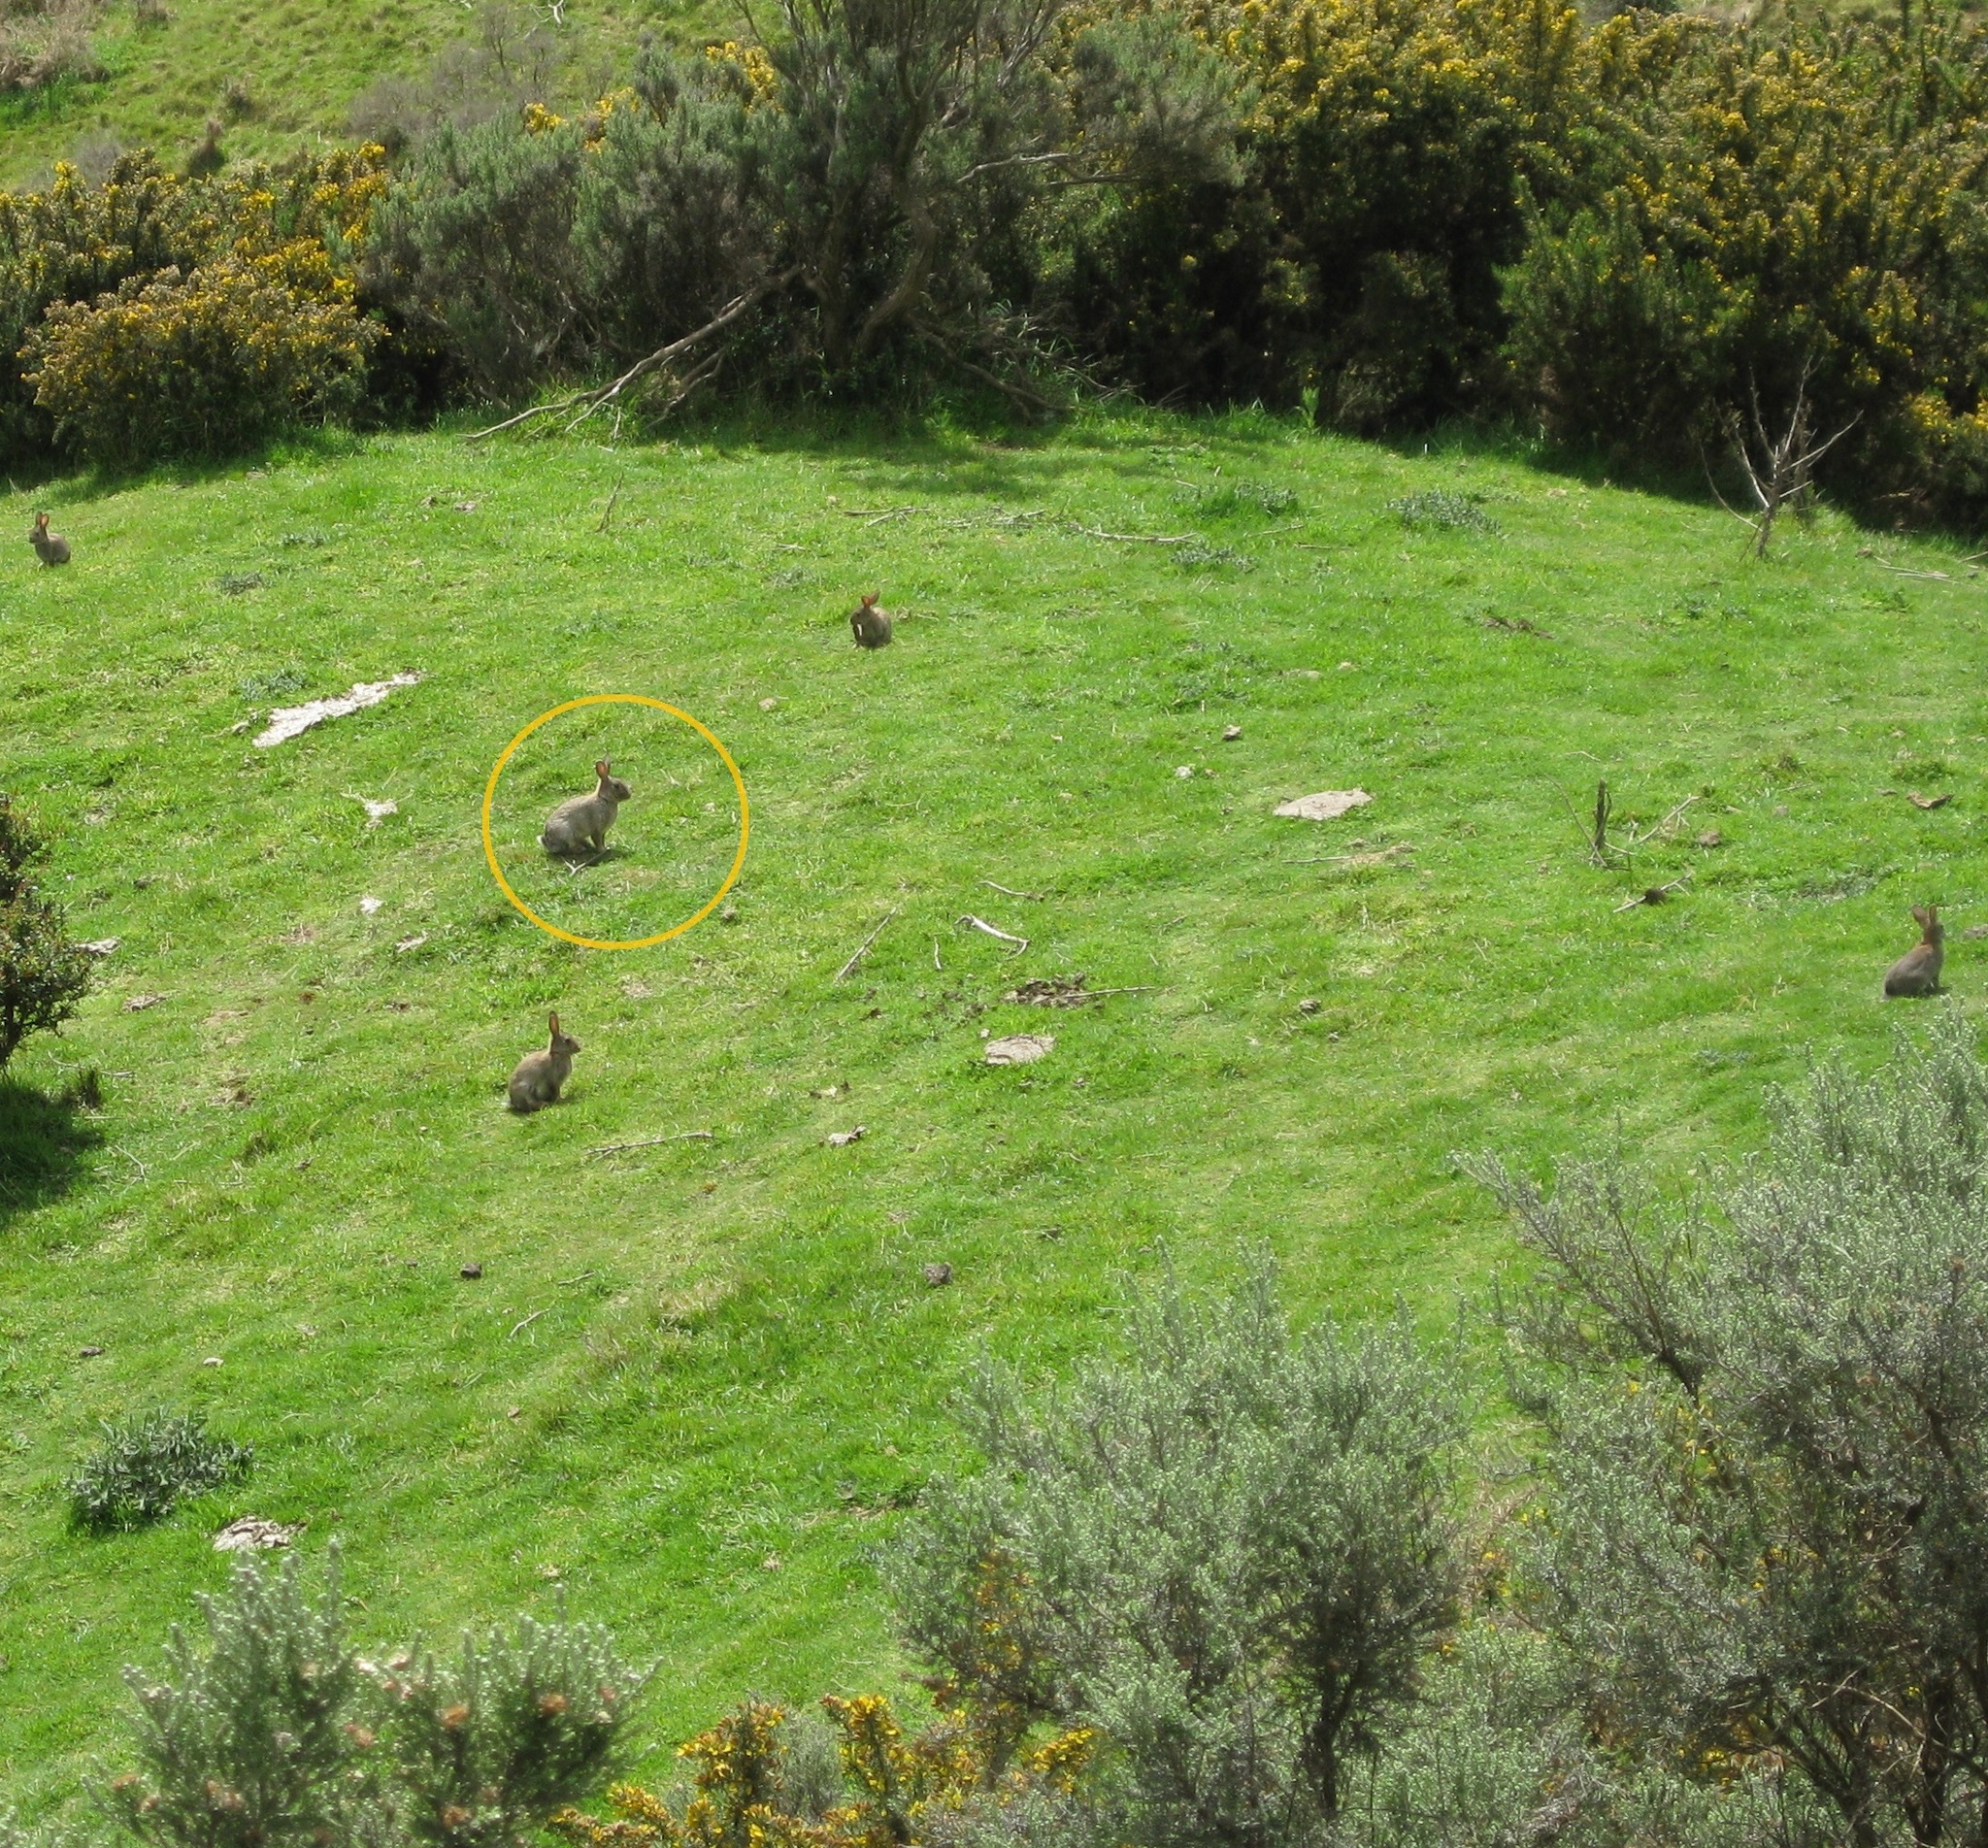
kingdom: Animalia
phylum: Chordata
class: Mammalia
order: Lagomorpha
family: Leporidae
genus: Oryctolagus
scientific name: Oryctolagus cuniculus
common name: European rabbit
